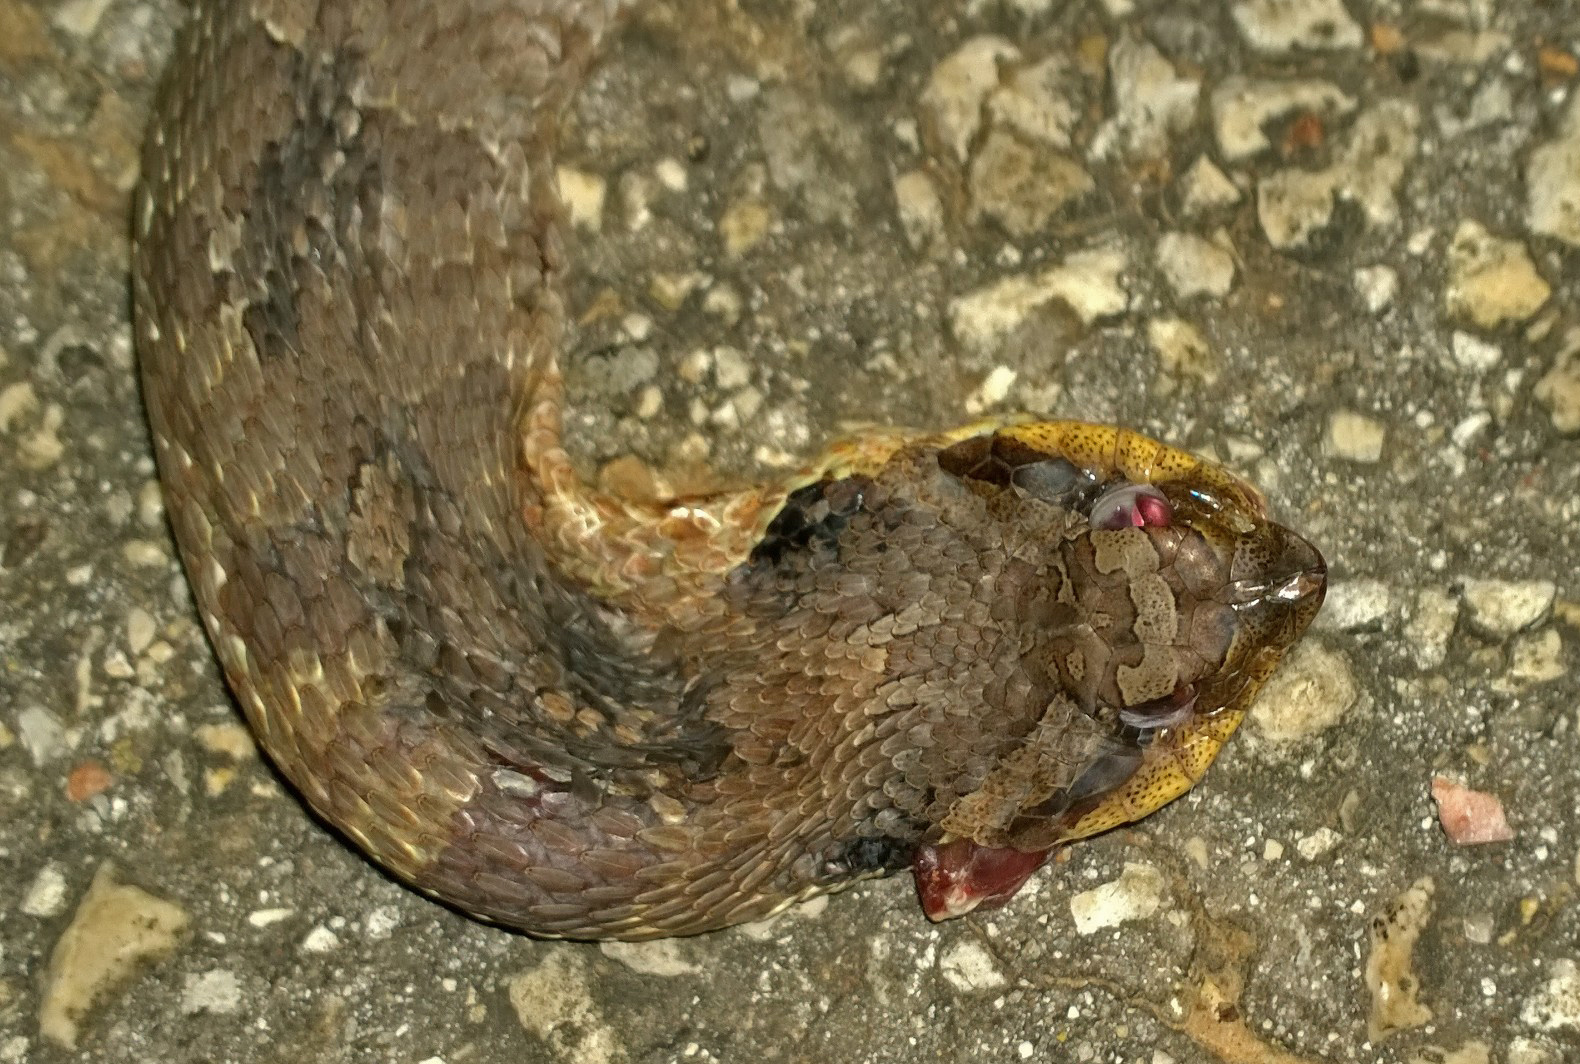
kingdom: Animalia
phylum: Chordata
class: Squamata
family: Colubridae
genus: Heterodon
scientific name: Heterodon platirhinos
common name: Eastern hognose snake
